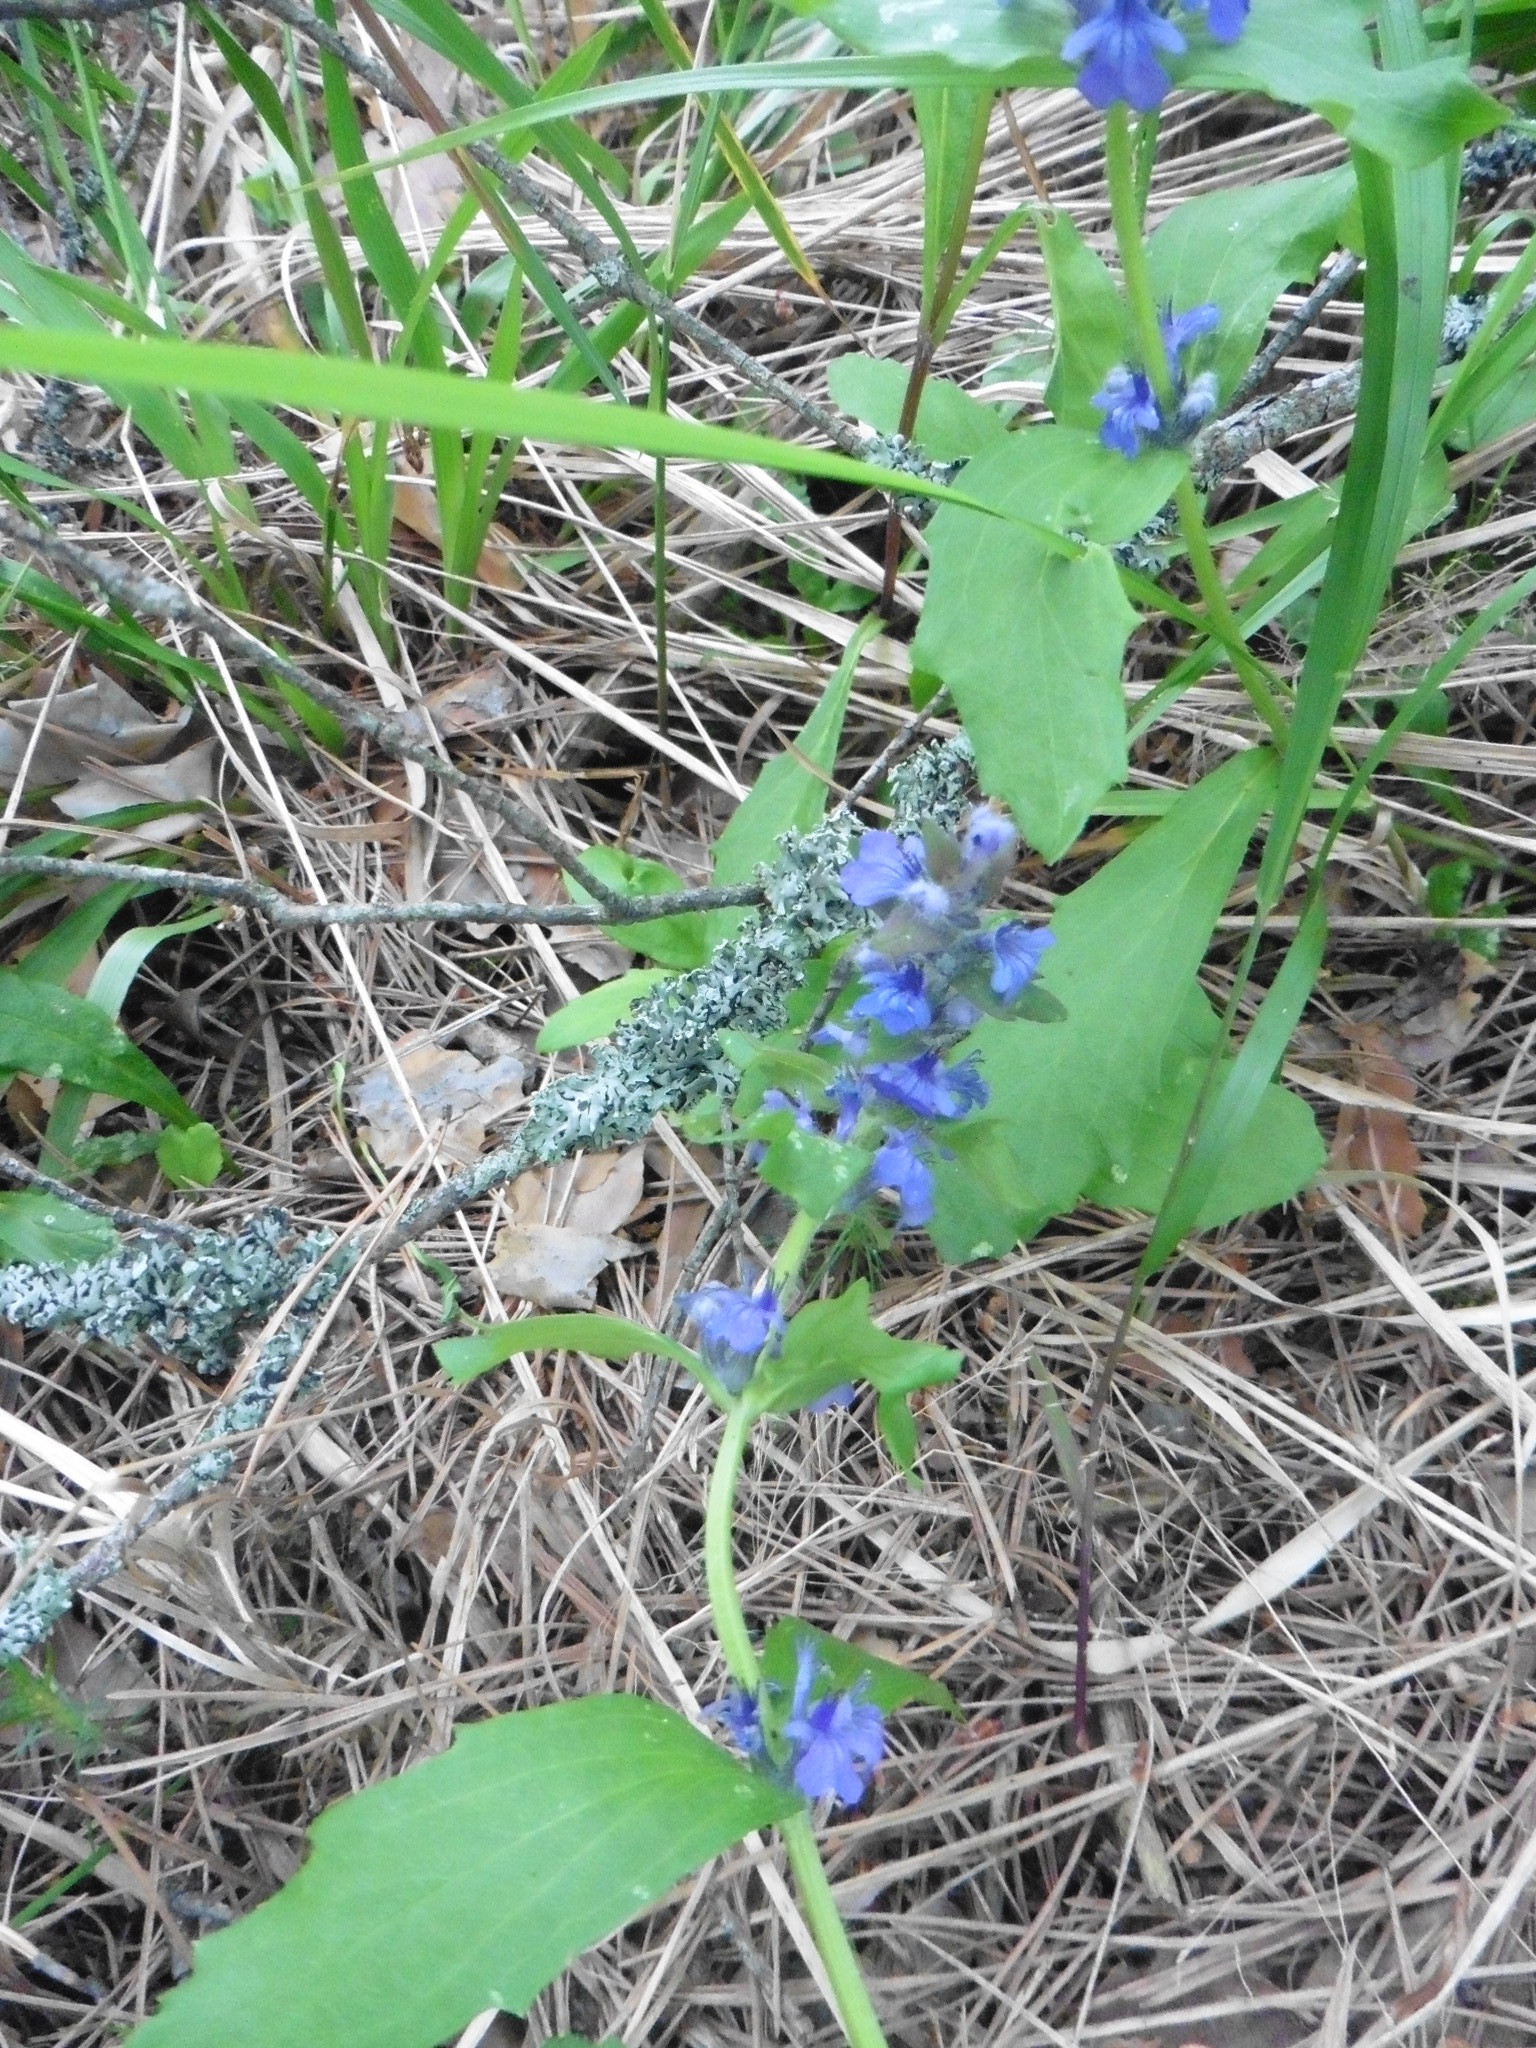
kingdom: Plantae
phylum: Tracheophyta
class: Magnoliopsida
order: Lamiales
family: Lamiaceae
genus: Ajuga
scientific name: Ajuga genevensis
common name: Blue bugle
